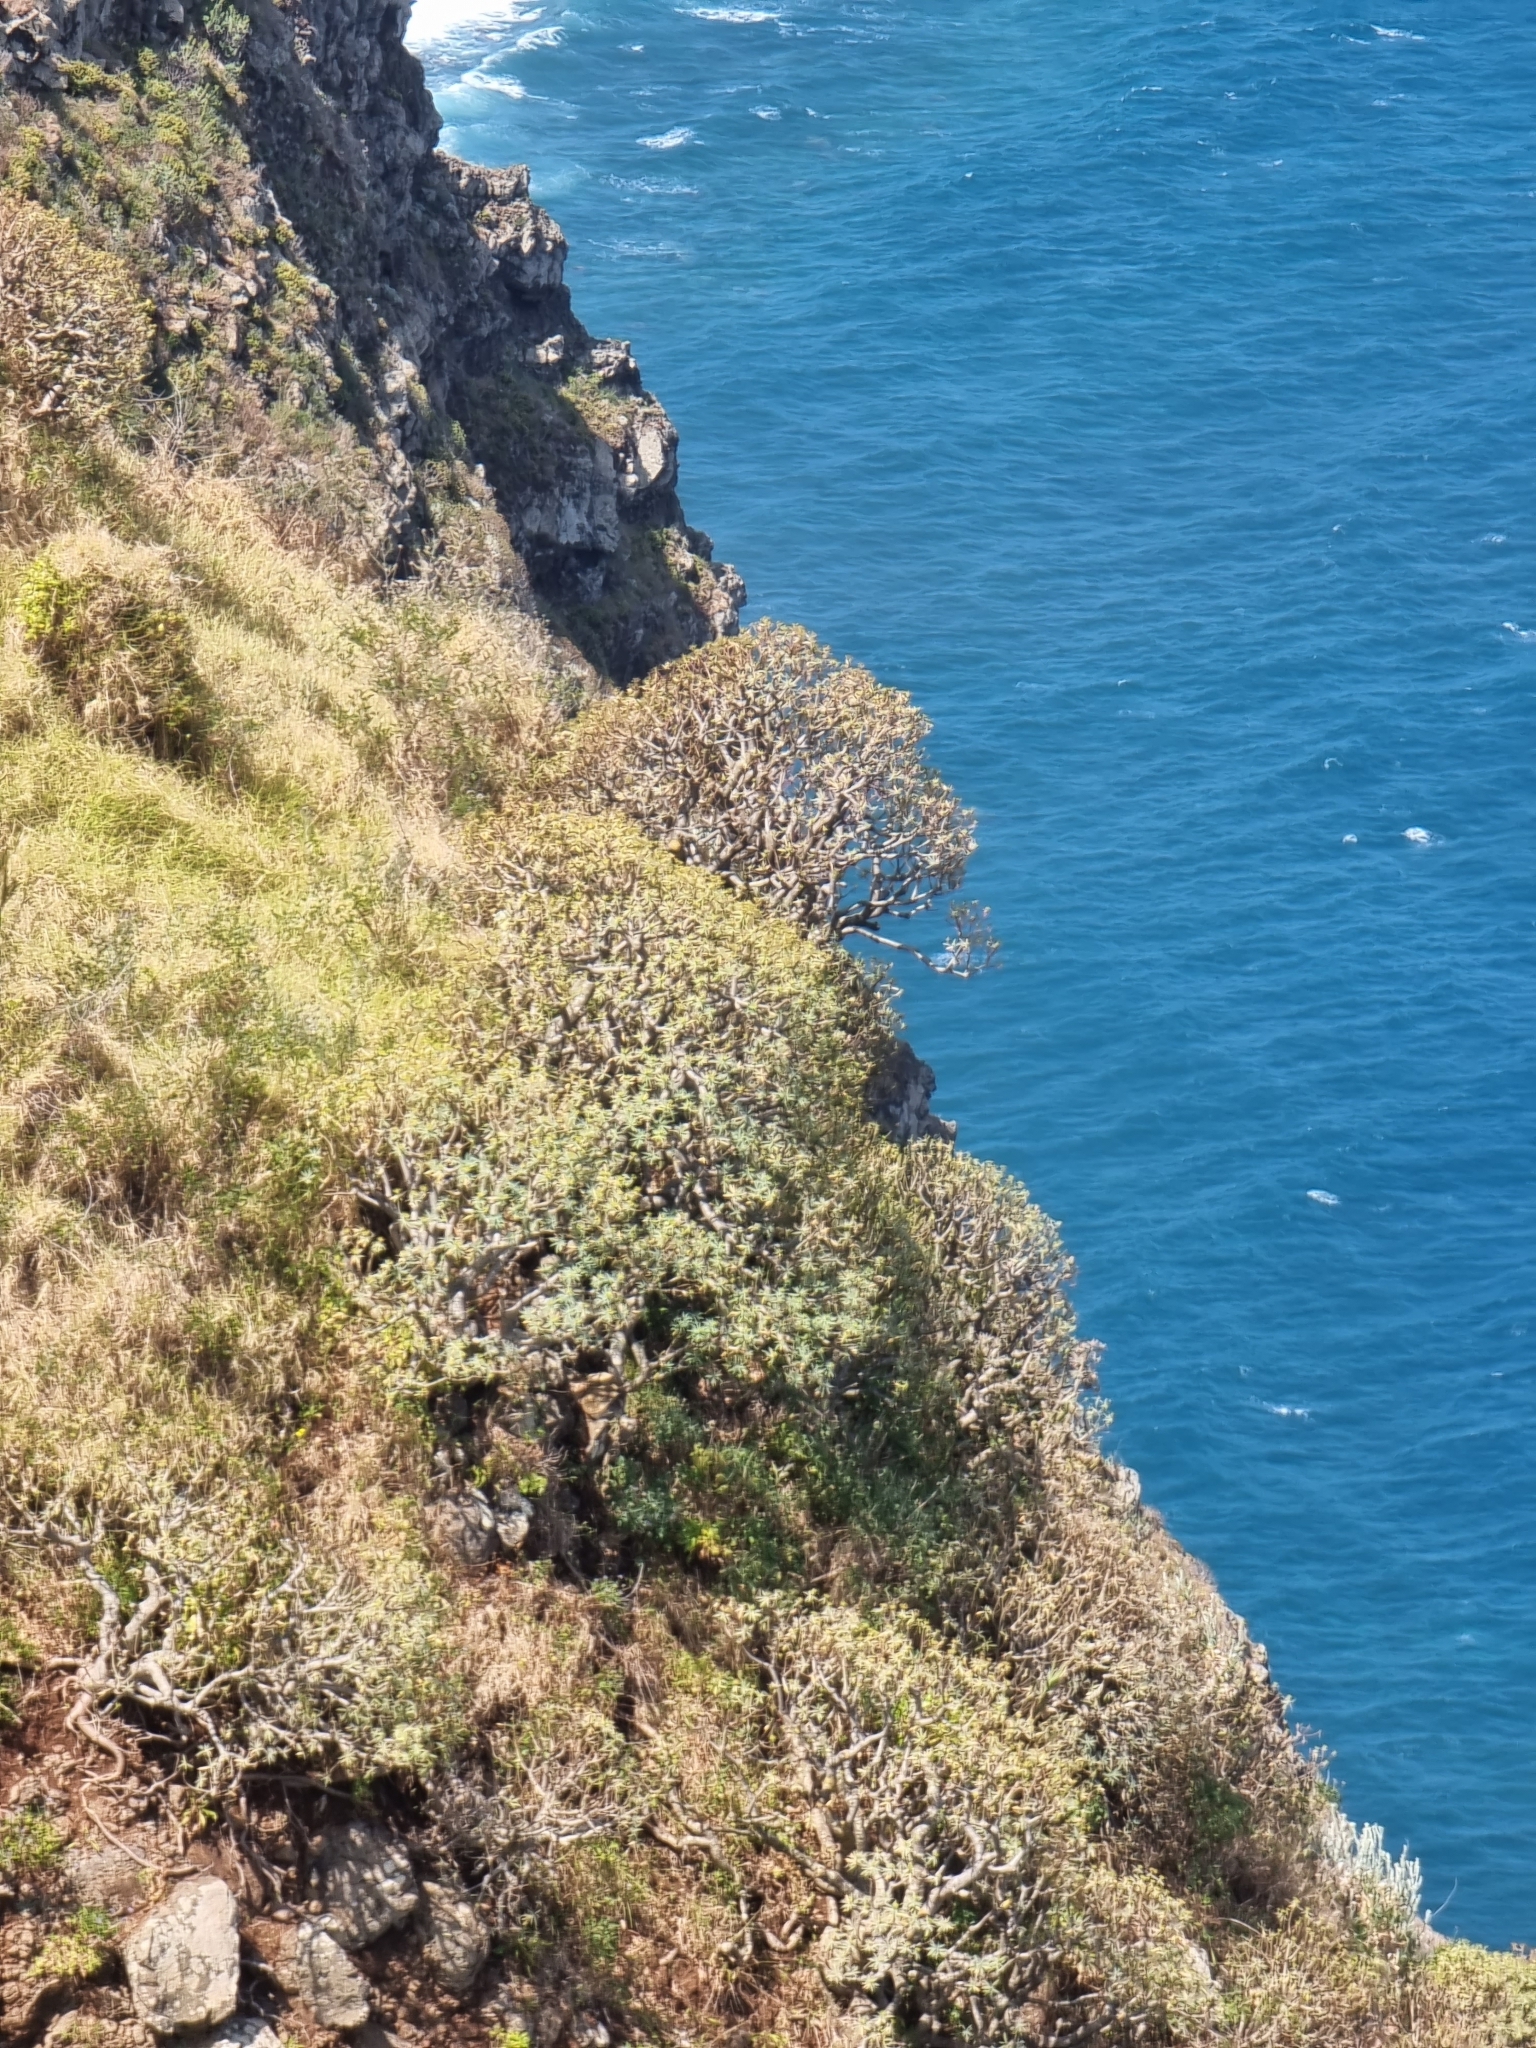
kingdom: Plantae
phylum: Tracheophyta
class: Magnoliopsida
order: Malpighiales
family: Euphorbiaceae
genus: Euphorbia
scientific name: Euphorbia piscatoria
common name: Fish-stunning spurge
